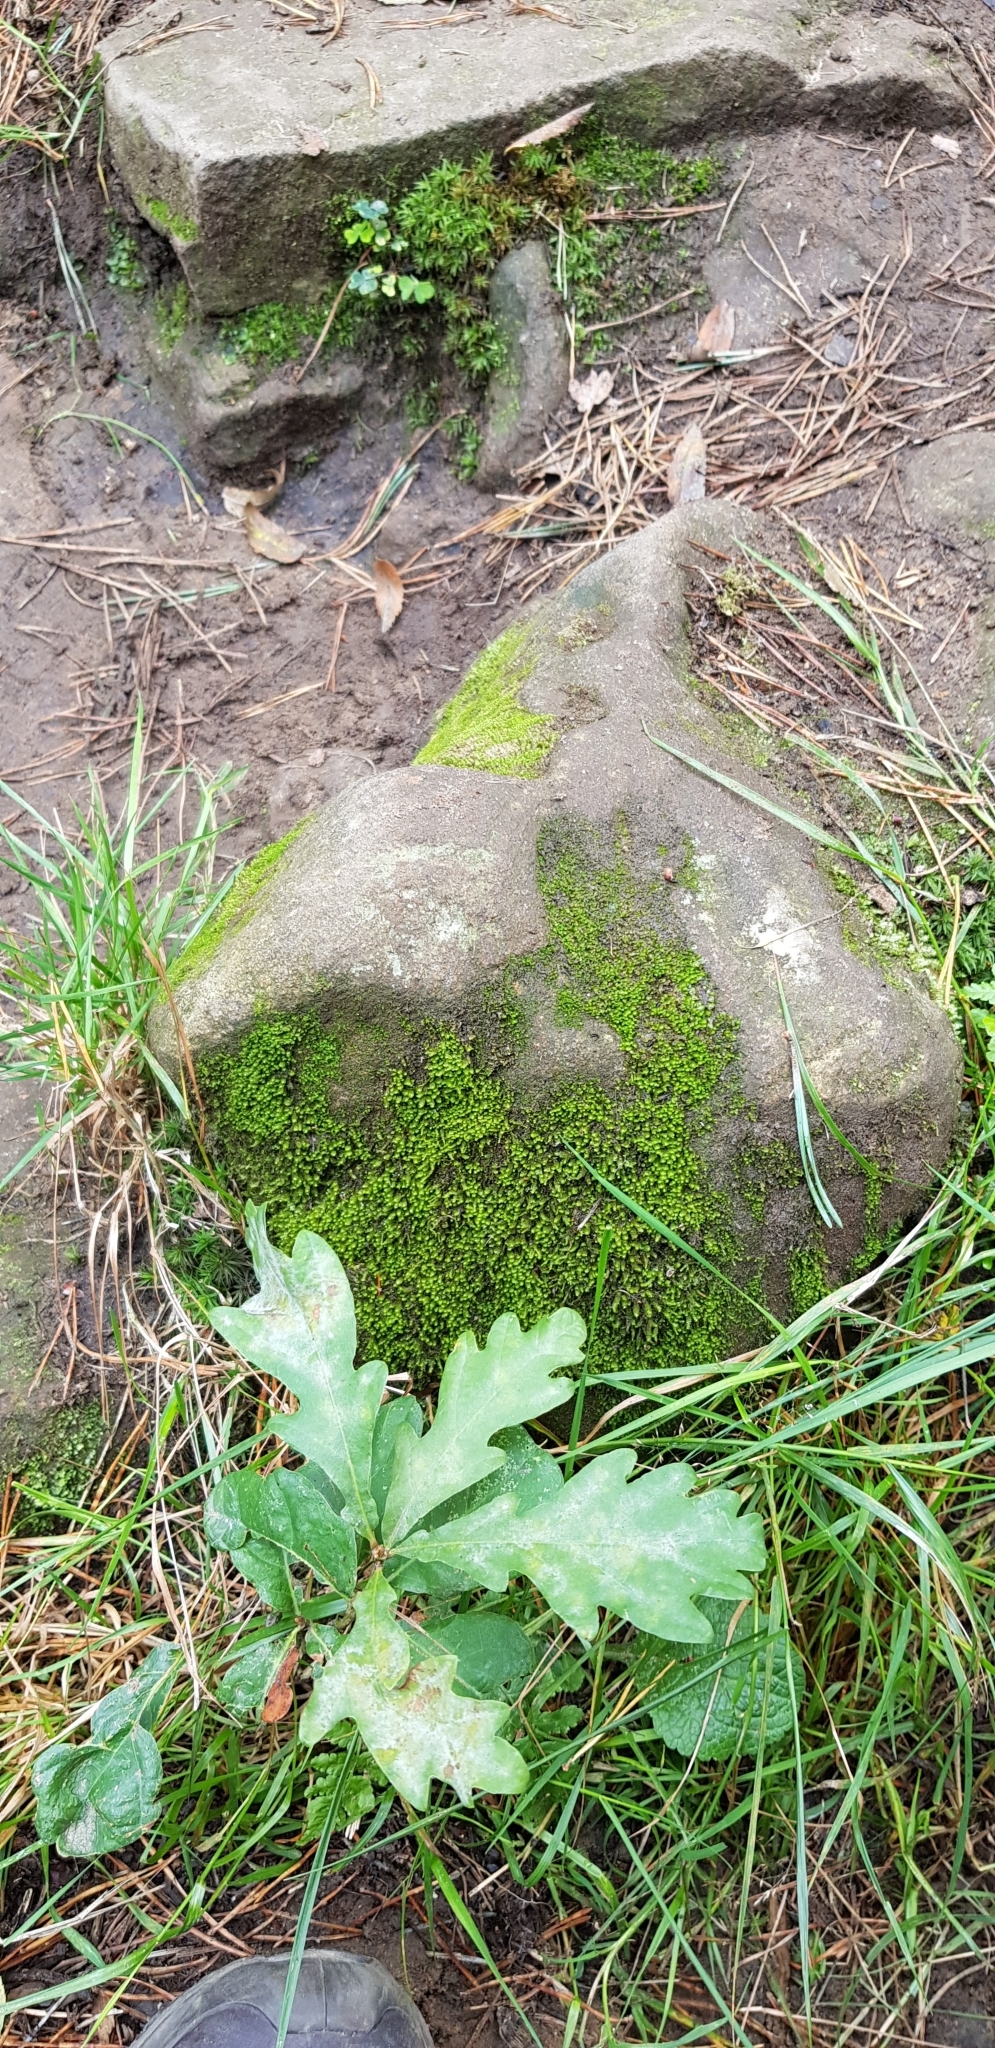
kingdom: Plantae
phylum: Marchantiophyta
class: Jungermanniopsida
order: Jungermanniales
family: Gymnomitriaceae
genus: Marsupella
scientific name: Marsupella emarginata
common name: Notched rustwort
